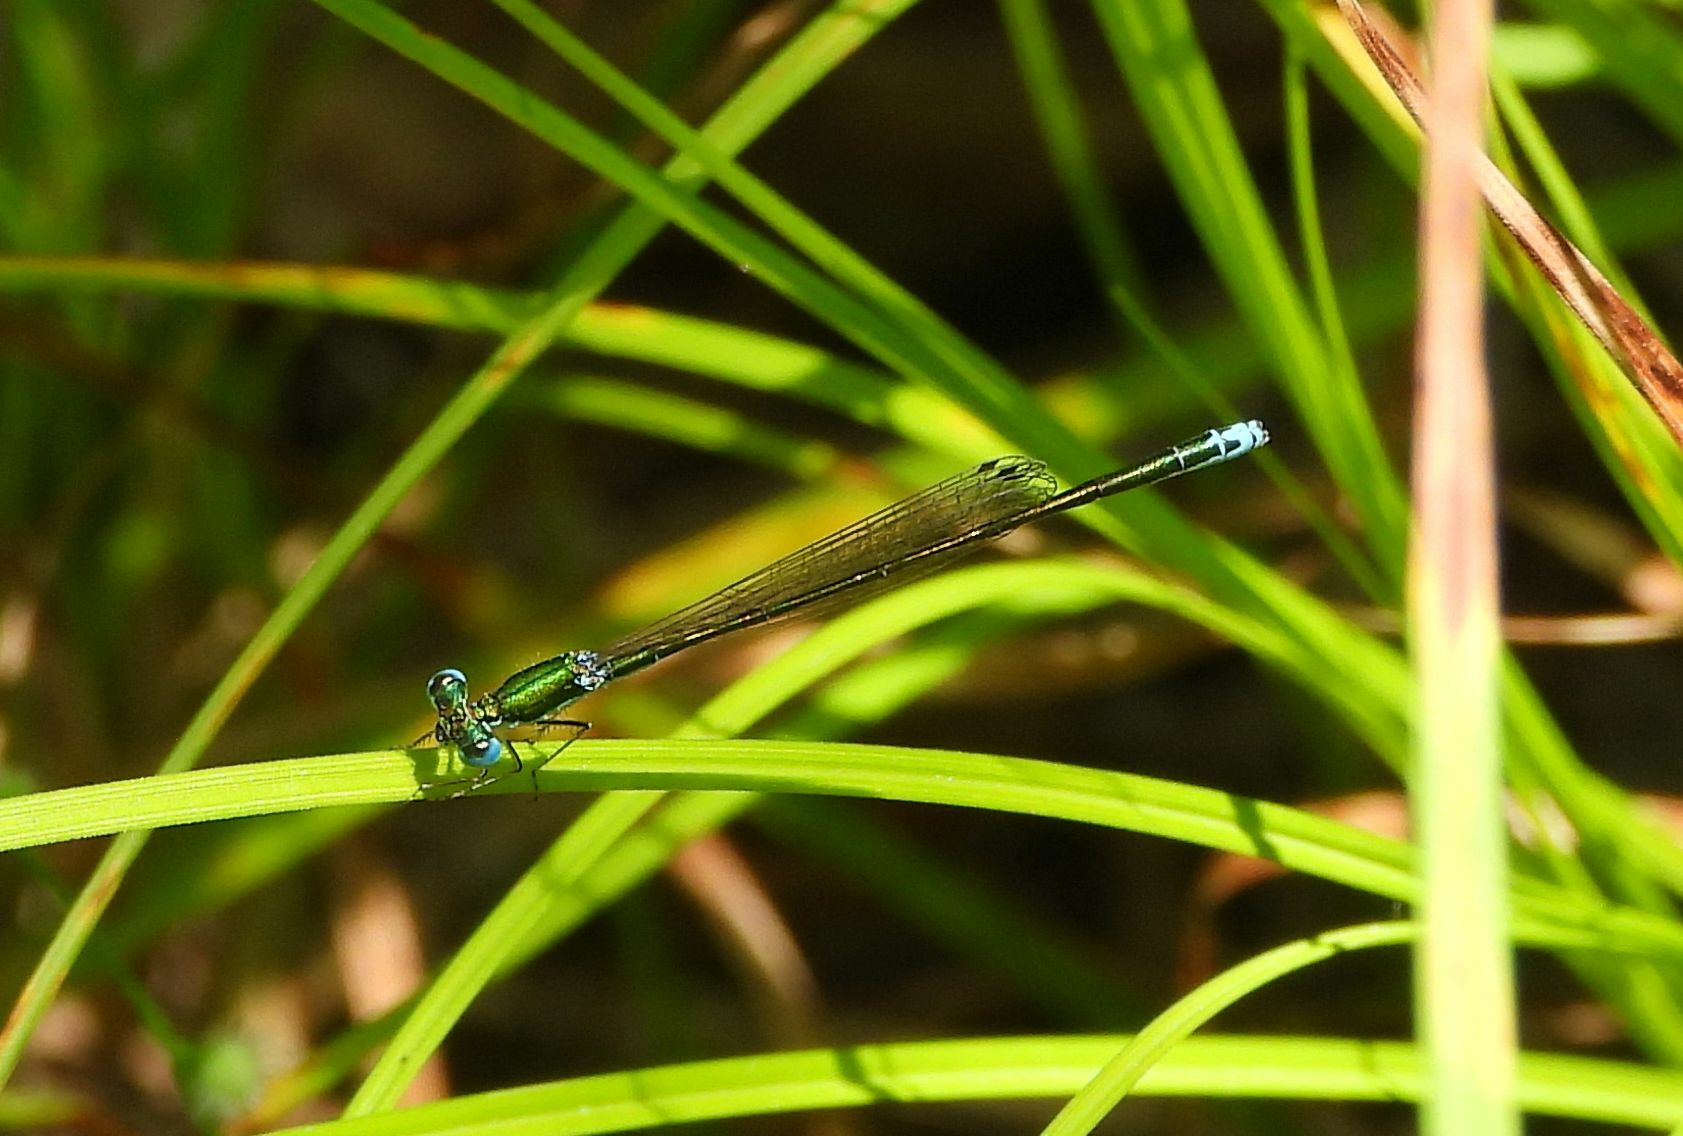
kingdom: Animalia
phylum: Arthropoda
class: Insecta
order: Odonata
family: Coenagrionidae
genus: Nehalennia
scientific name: Nehalennia irene
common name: Sedge sprite
